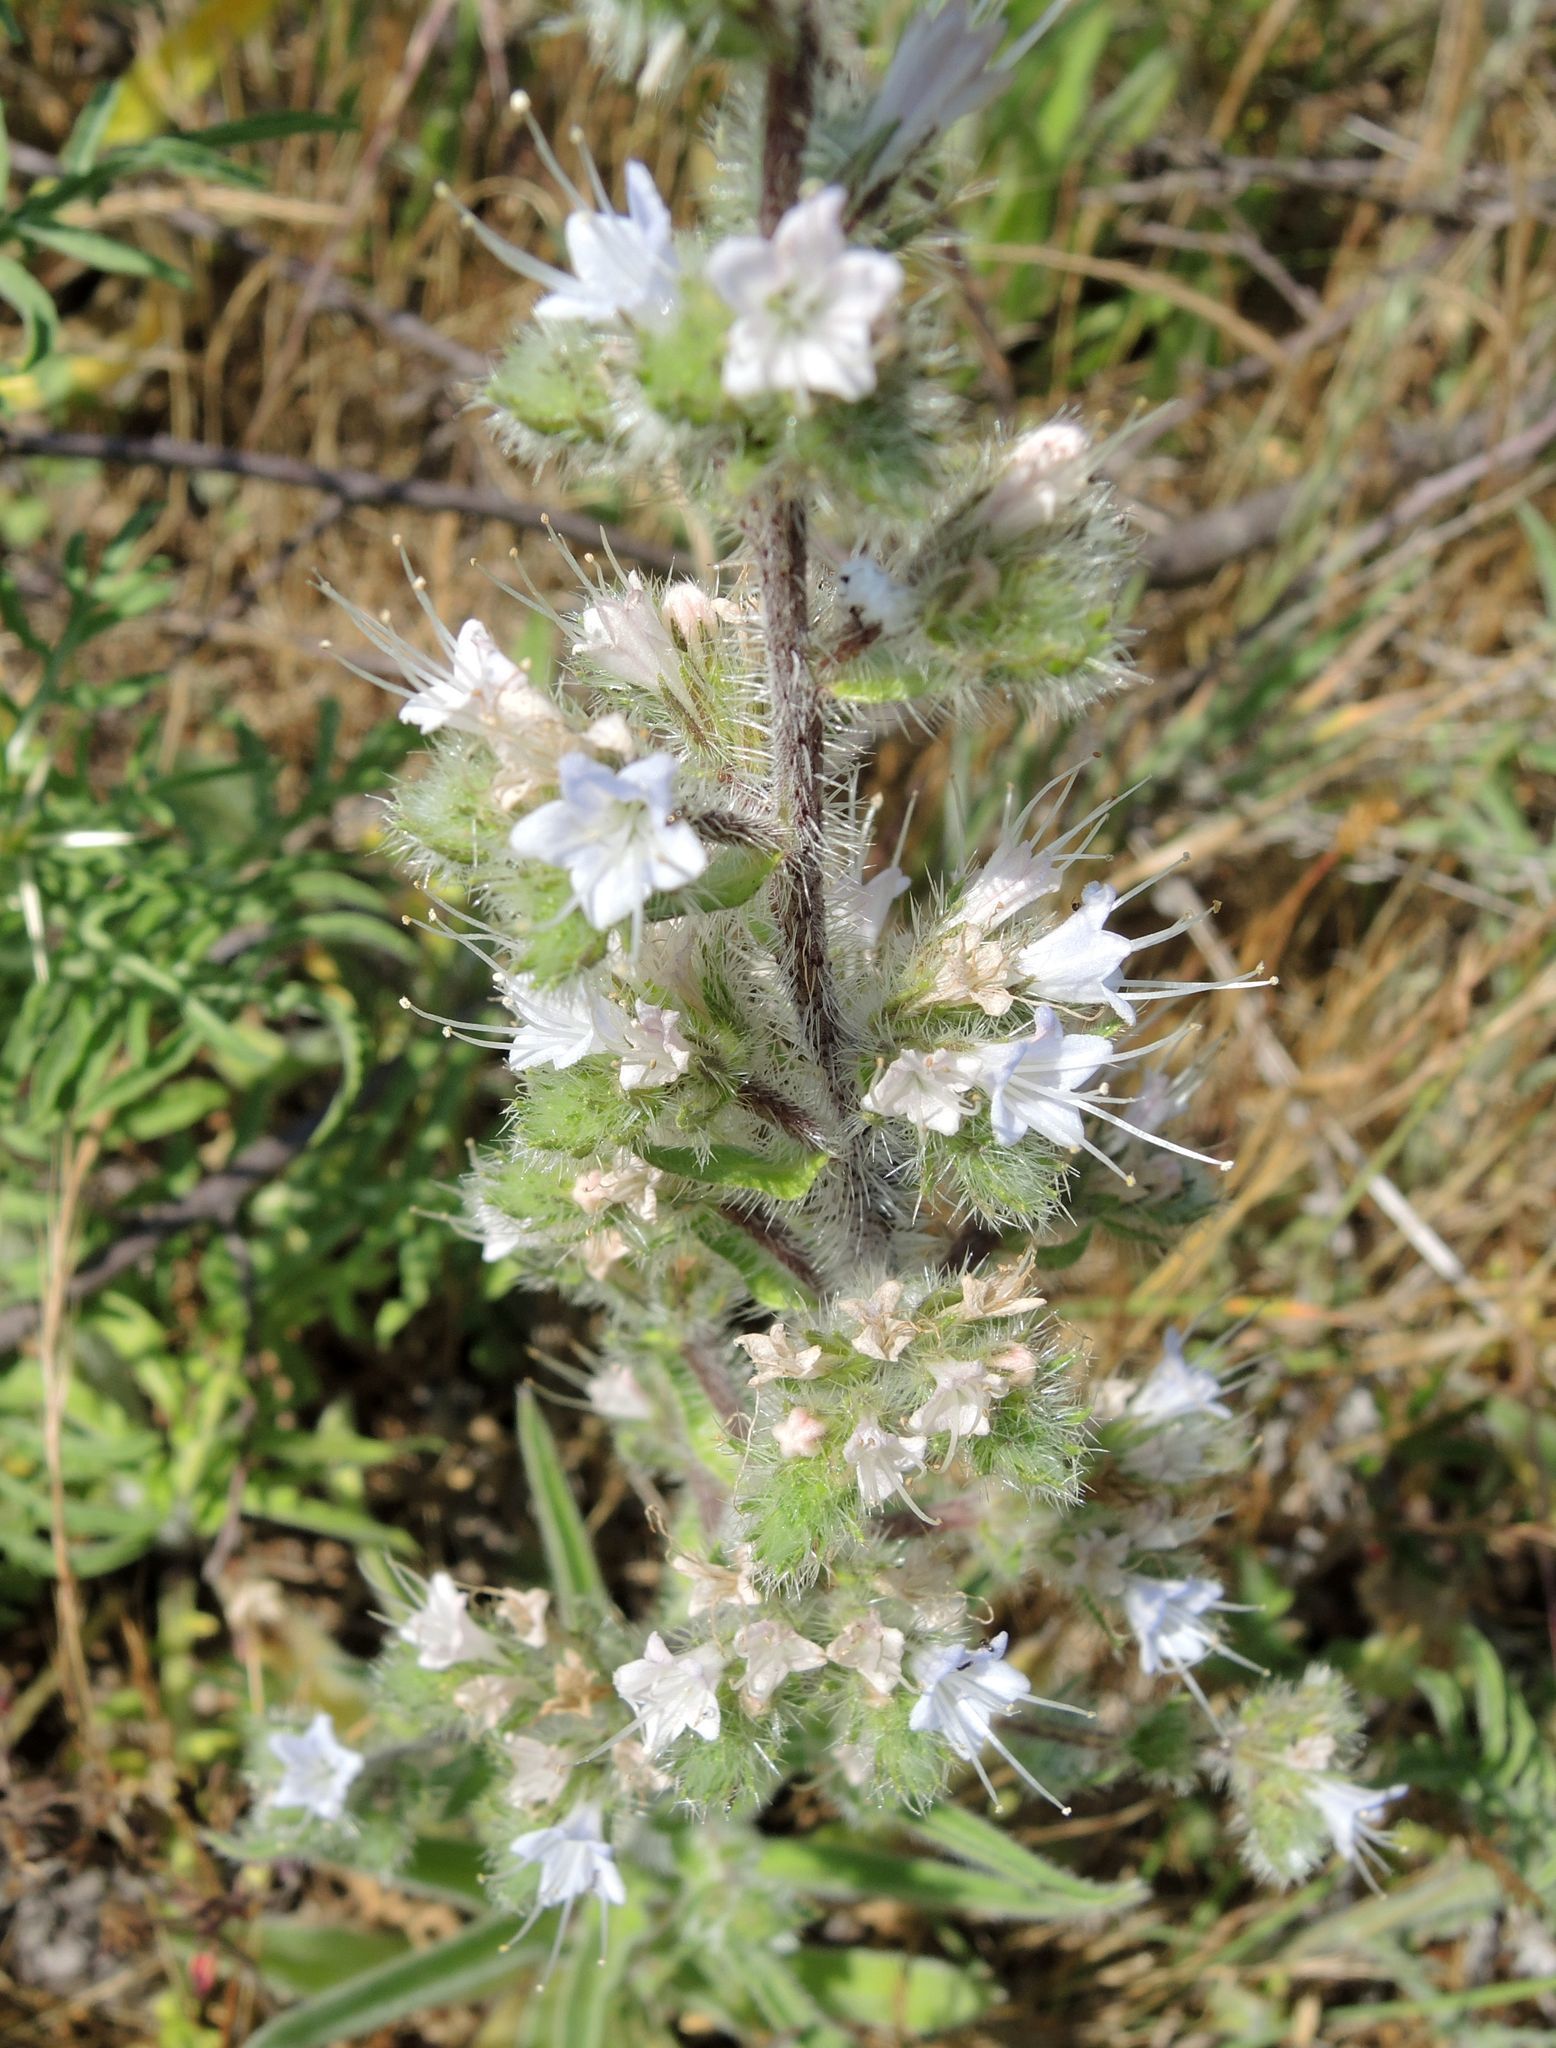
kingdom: Animalia
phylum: Arthropoda
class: Insecta
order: Lepidoptera
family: Nymphalidae
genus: Maniola
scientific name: Maniola jurtina
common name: Meadow brown
